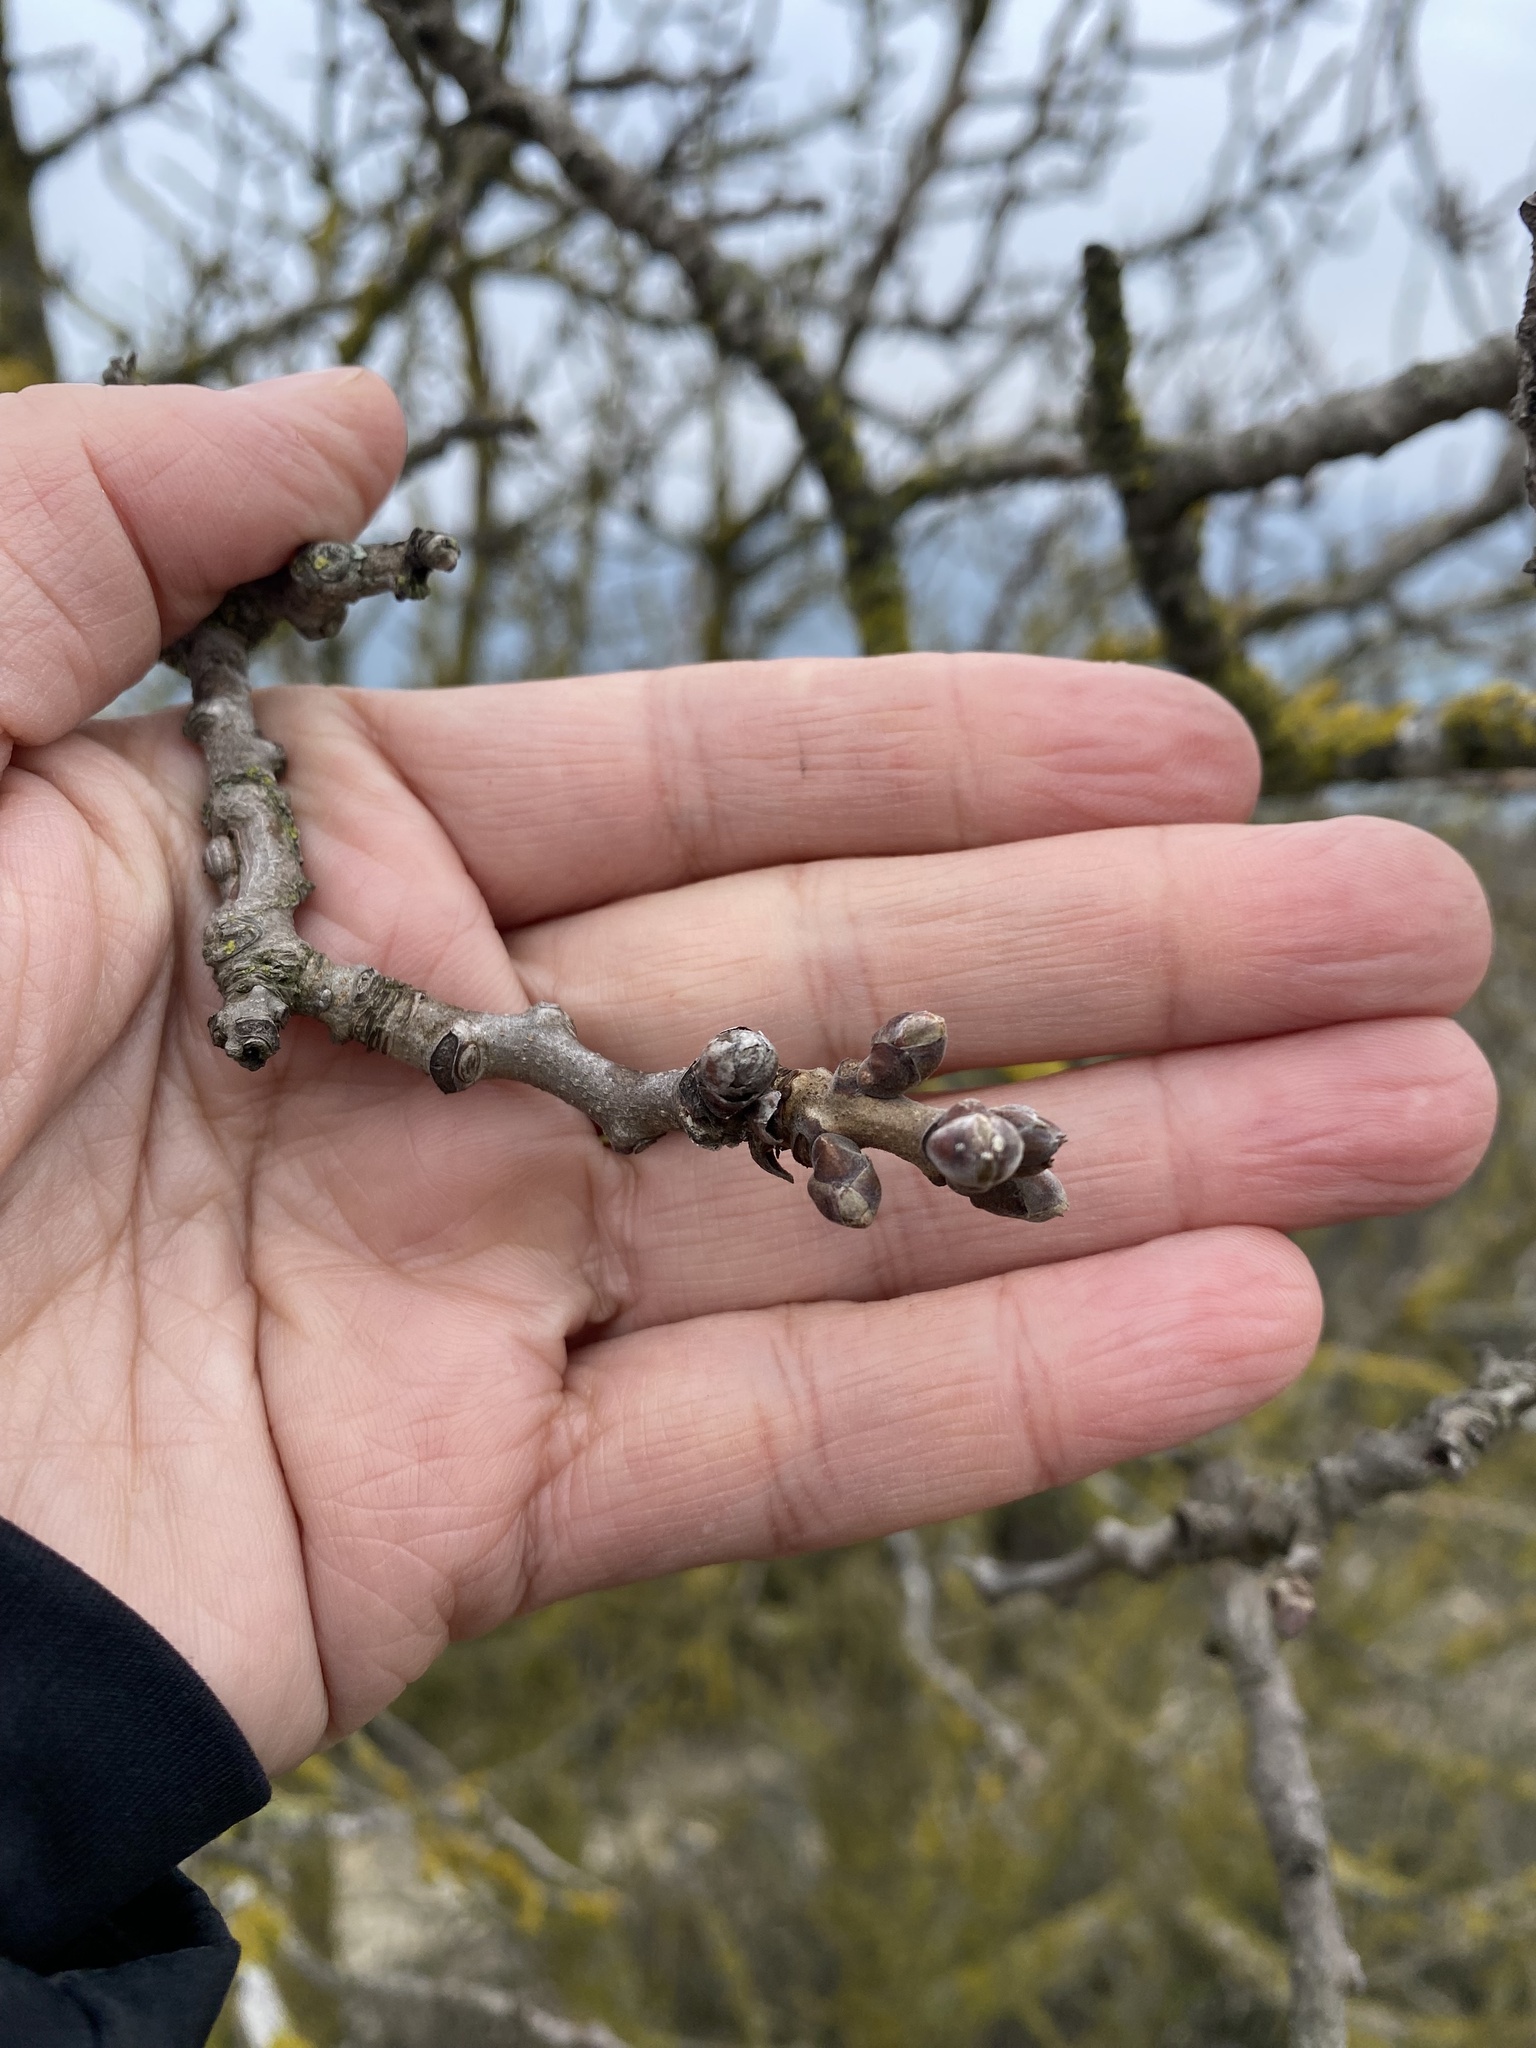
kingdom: Plantae
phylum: Tracheophyta
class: Magnoliopsida
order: Sapindales
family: Anacardiaceae
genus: Pistacia
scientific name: Pistacia atlantica
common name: Mt. atlas mastic tree
